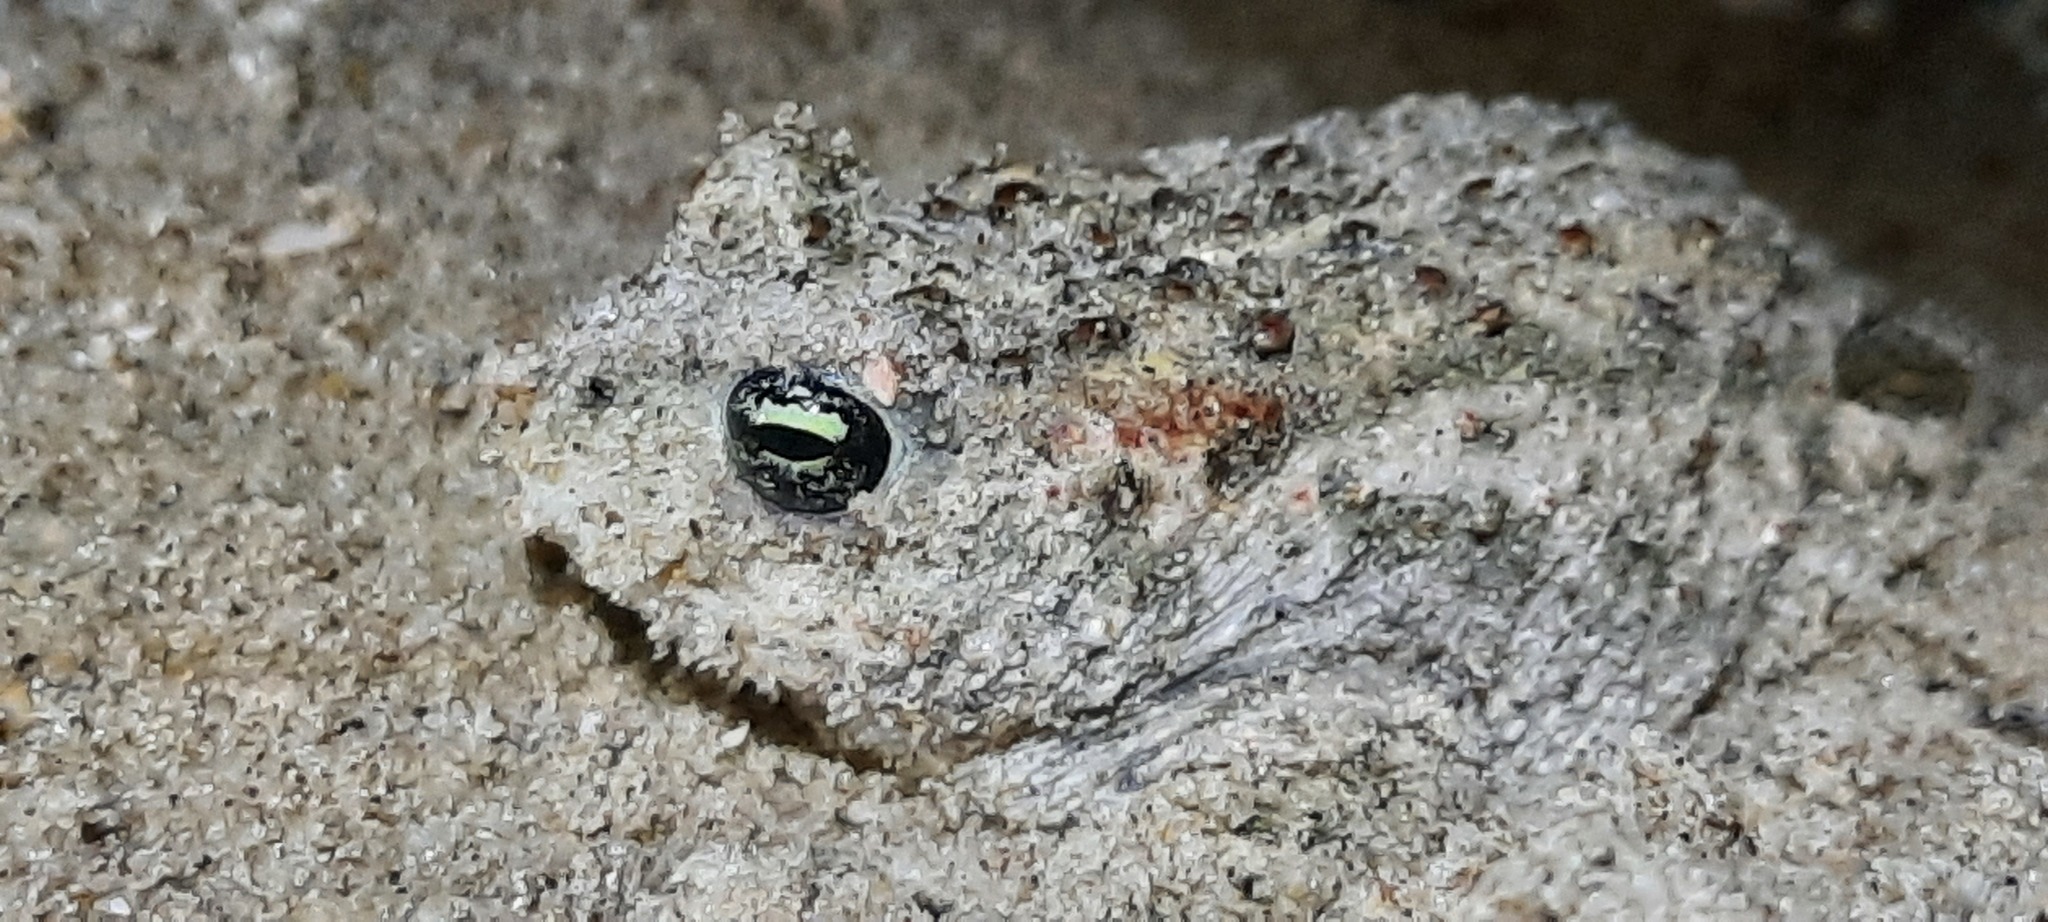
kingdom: Animalia
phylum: Chordata
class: Amphibia
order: Anura
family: Bufonidae
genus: Epidalea
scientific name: Epidalea calamita
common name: Natterjack toad
